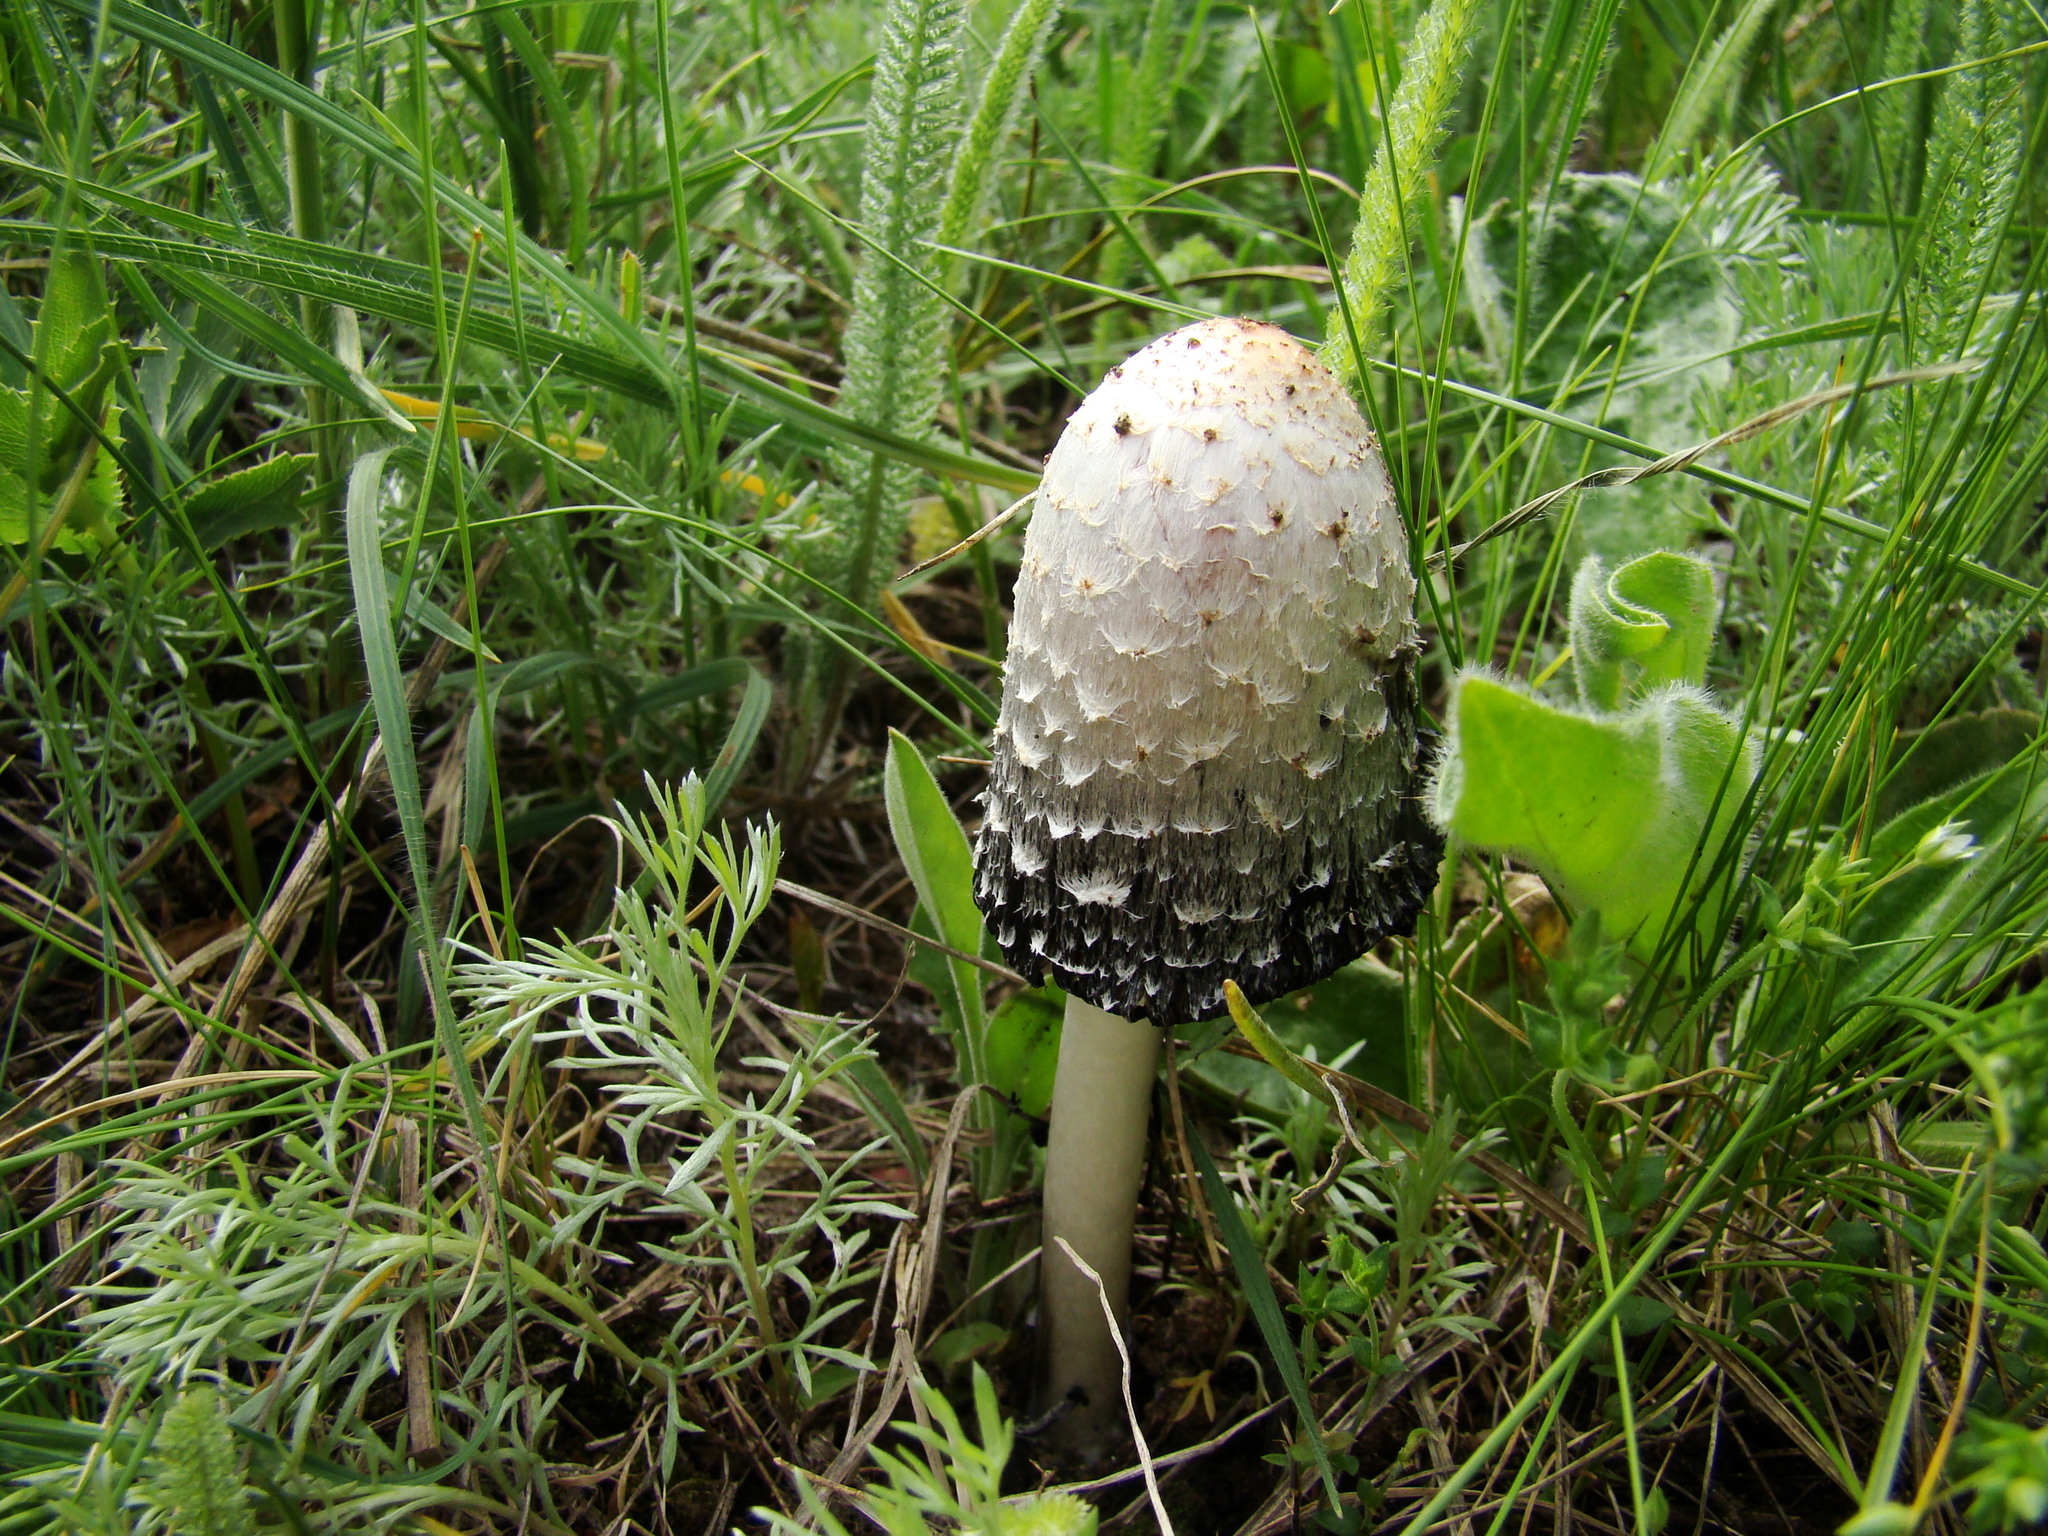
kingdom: Fungi
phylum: Basidiomycota
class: Agaricomycetes
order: Agaricales
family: Agaricaceae
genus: Coprinus
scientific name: Coprinus comatus
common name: Lawyer's wig
